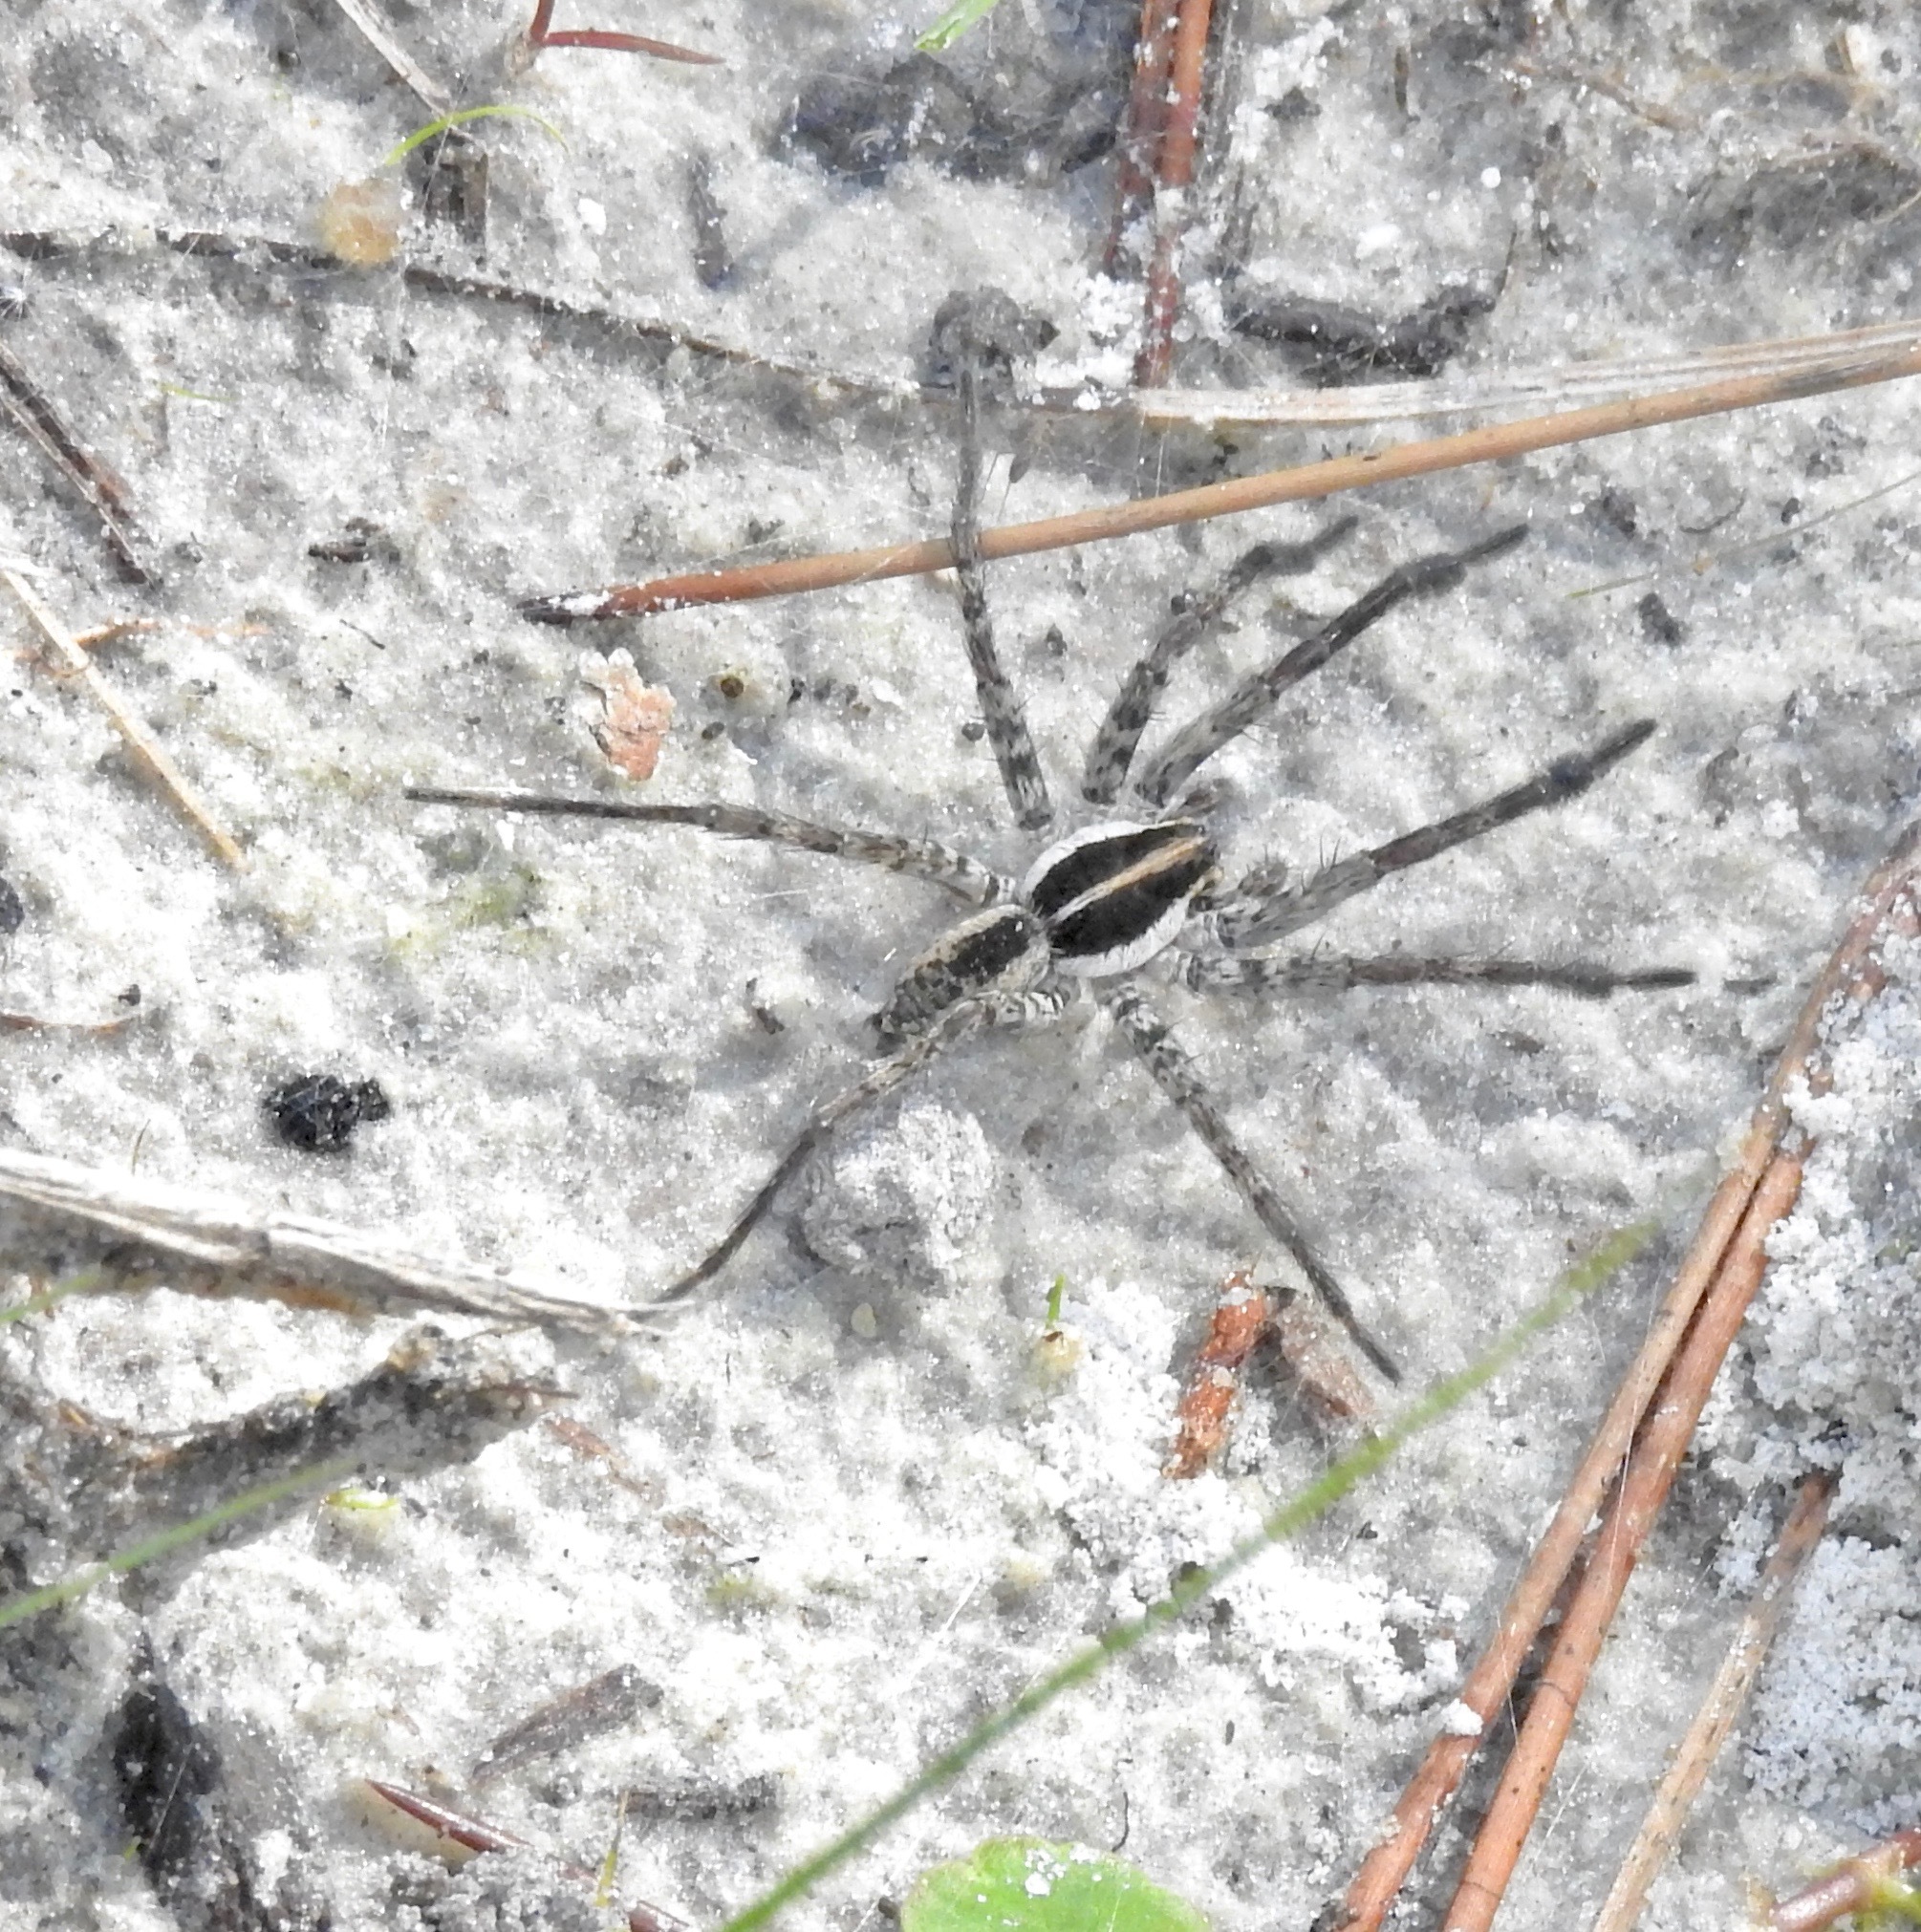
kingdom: Animalia
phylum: Arthropoda
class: Arachnida
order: Araneae
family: Lycosidae
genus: Sosippus
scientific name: Sosippus floridanus
